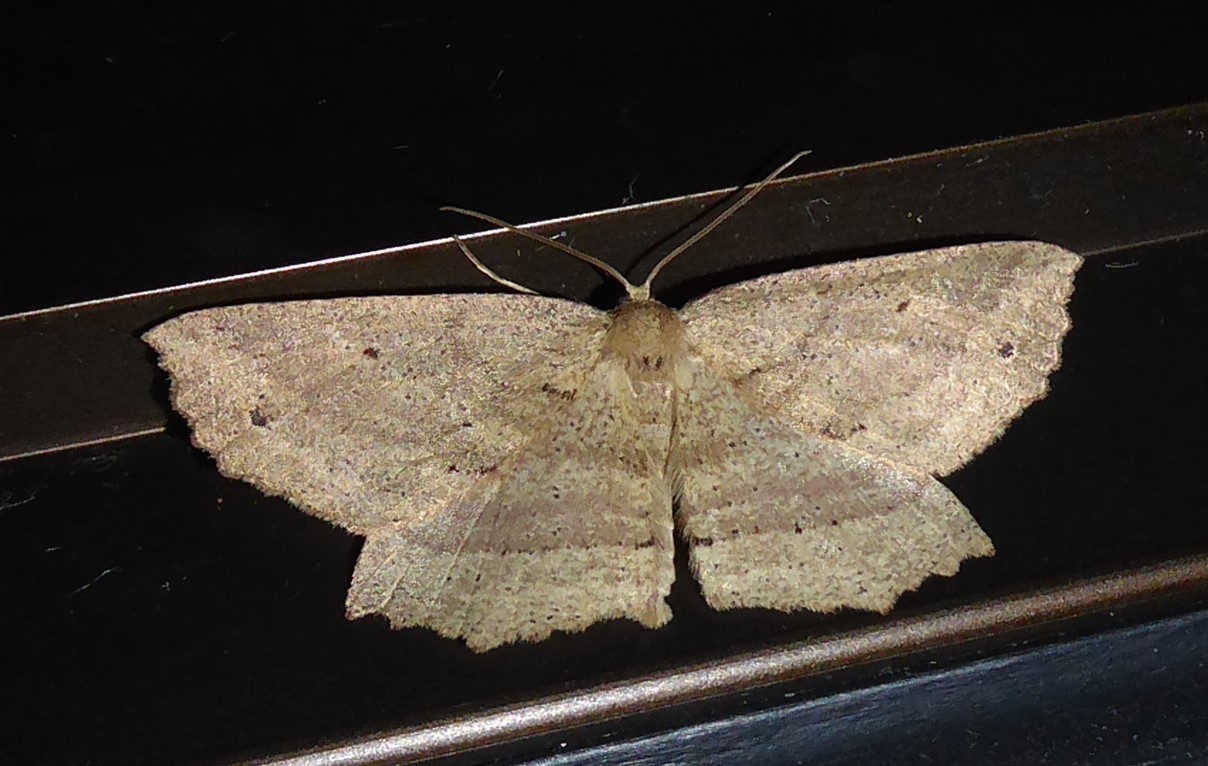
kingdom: Animalia
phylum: Arthropoda
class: Insecta
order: Lepidoptera
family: Geometridae
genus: Xyridacma
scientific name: Xyridacma veronicae
